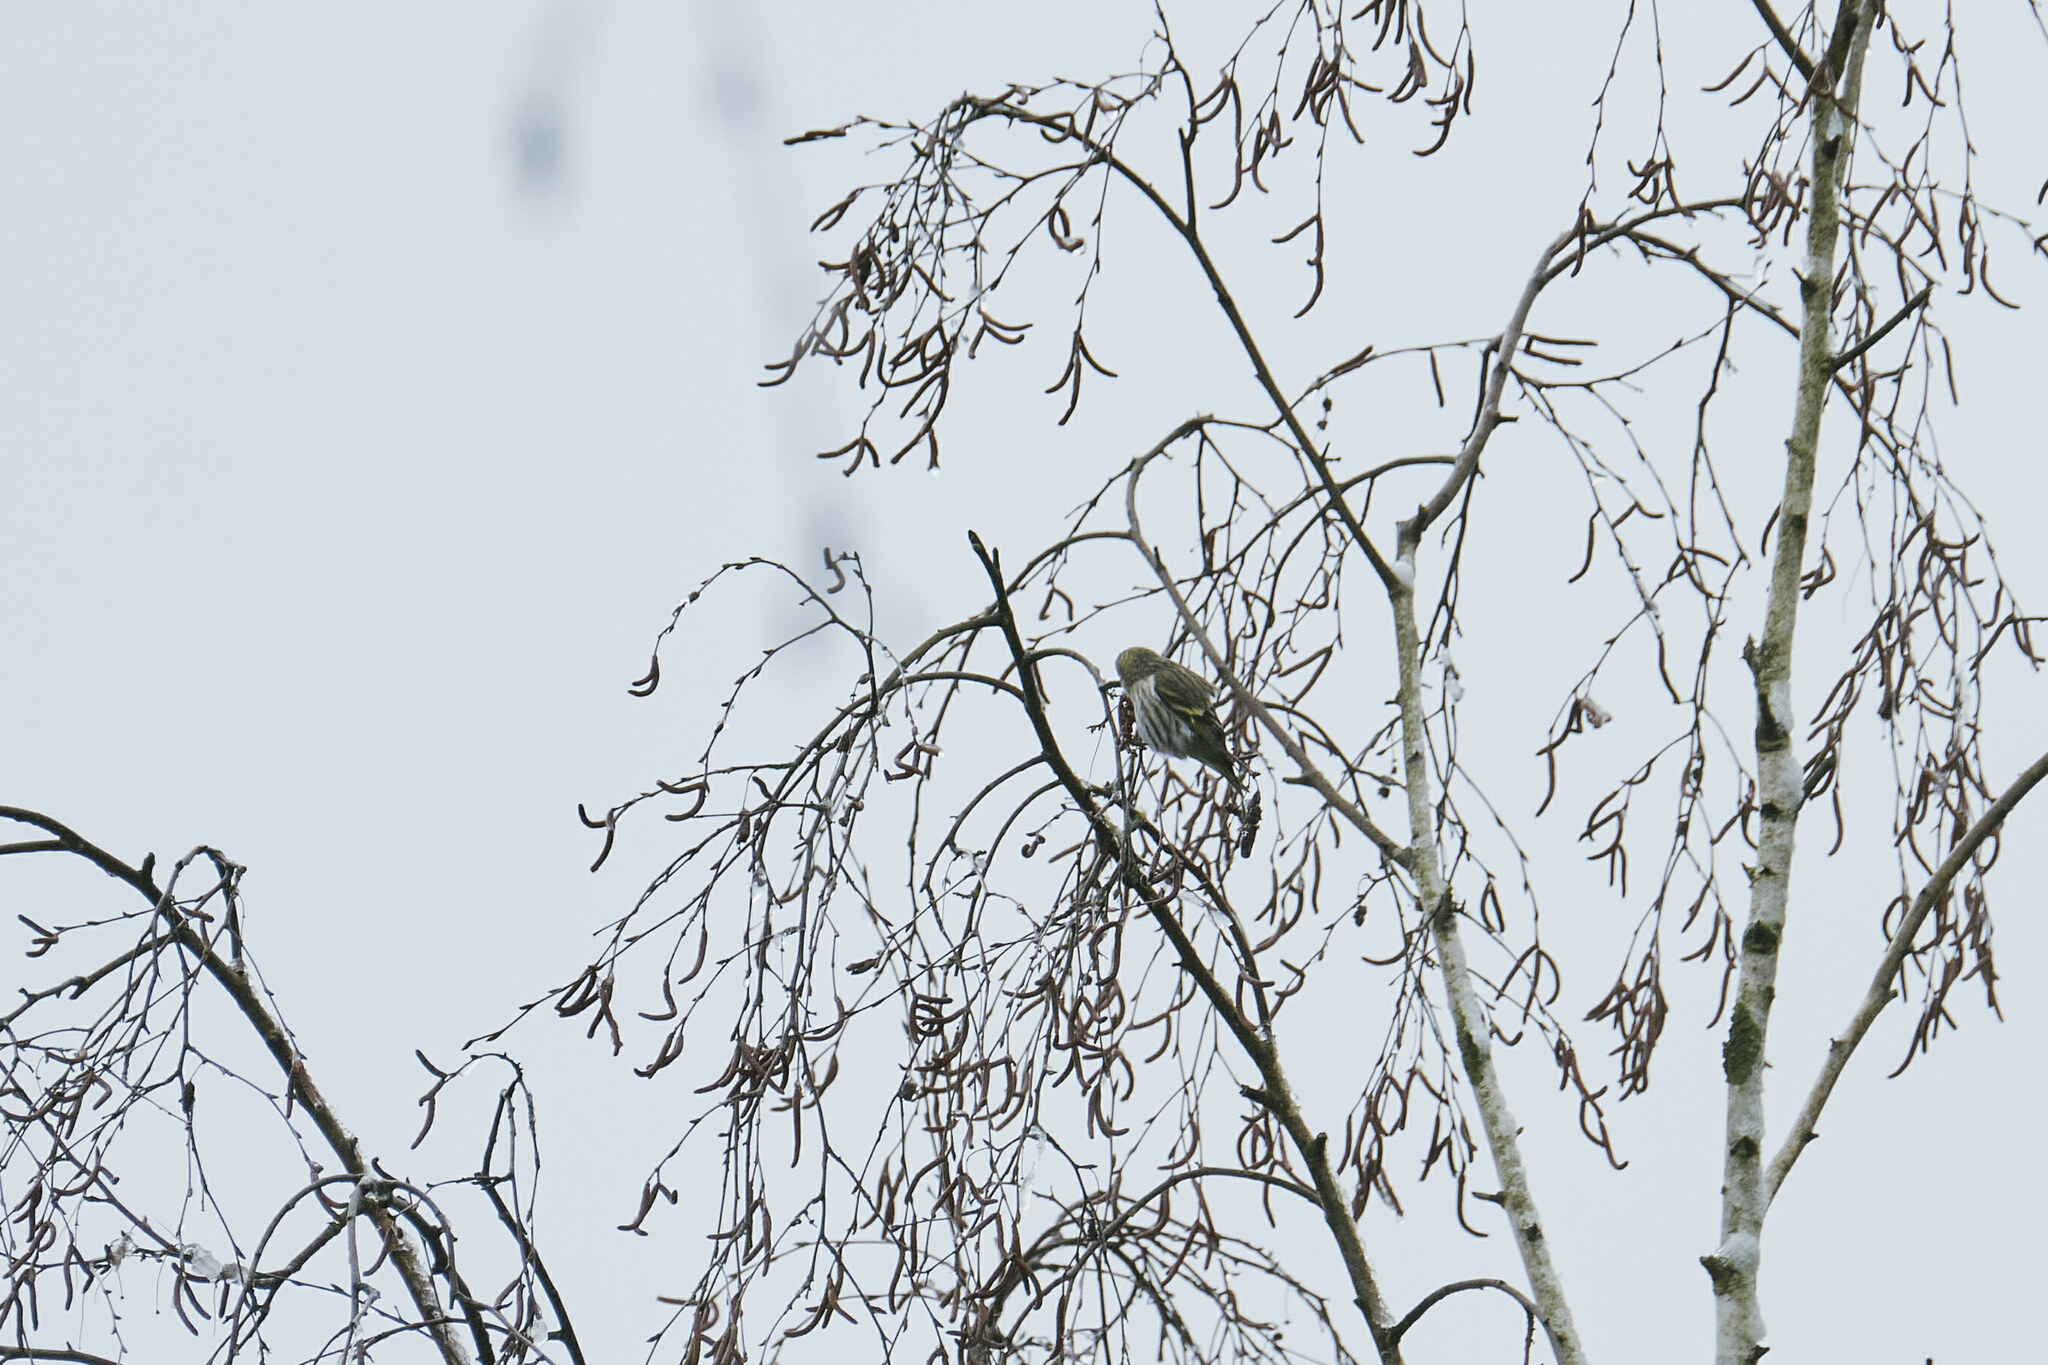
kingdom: Animalia
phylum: Chordata
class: Aves
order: Passeriformes
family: Fringillidae
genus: Spinus
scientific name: Spinus spinus
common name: Eurasian siskin
